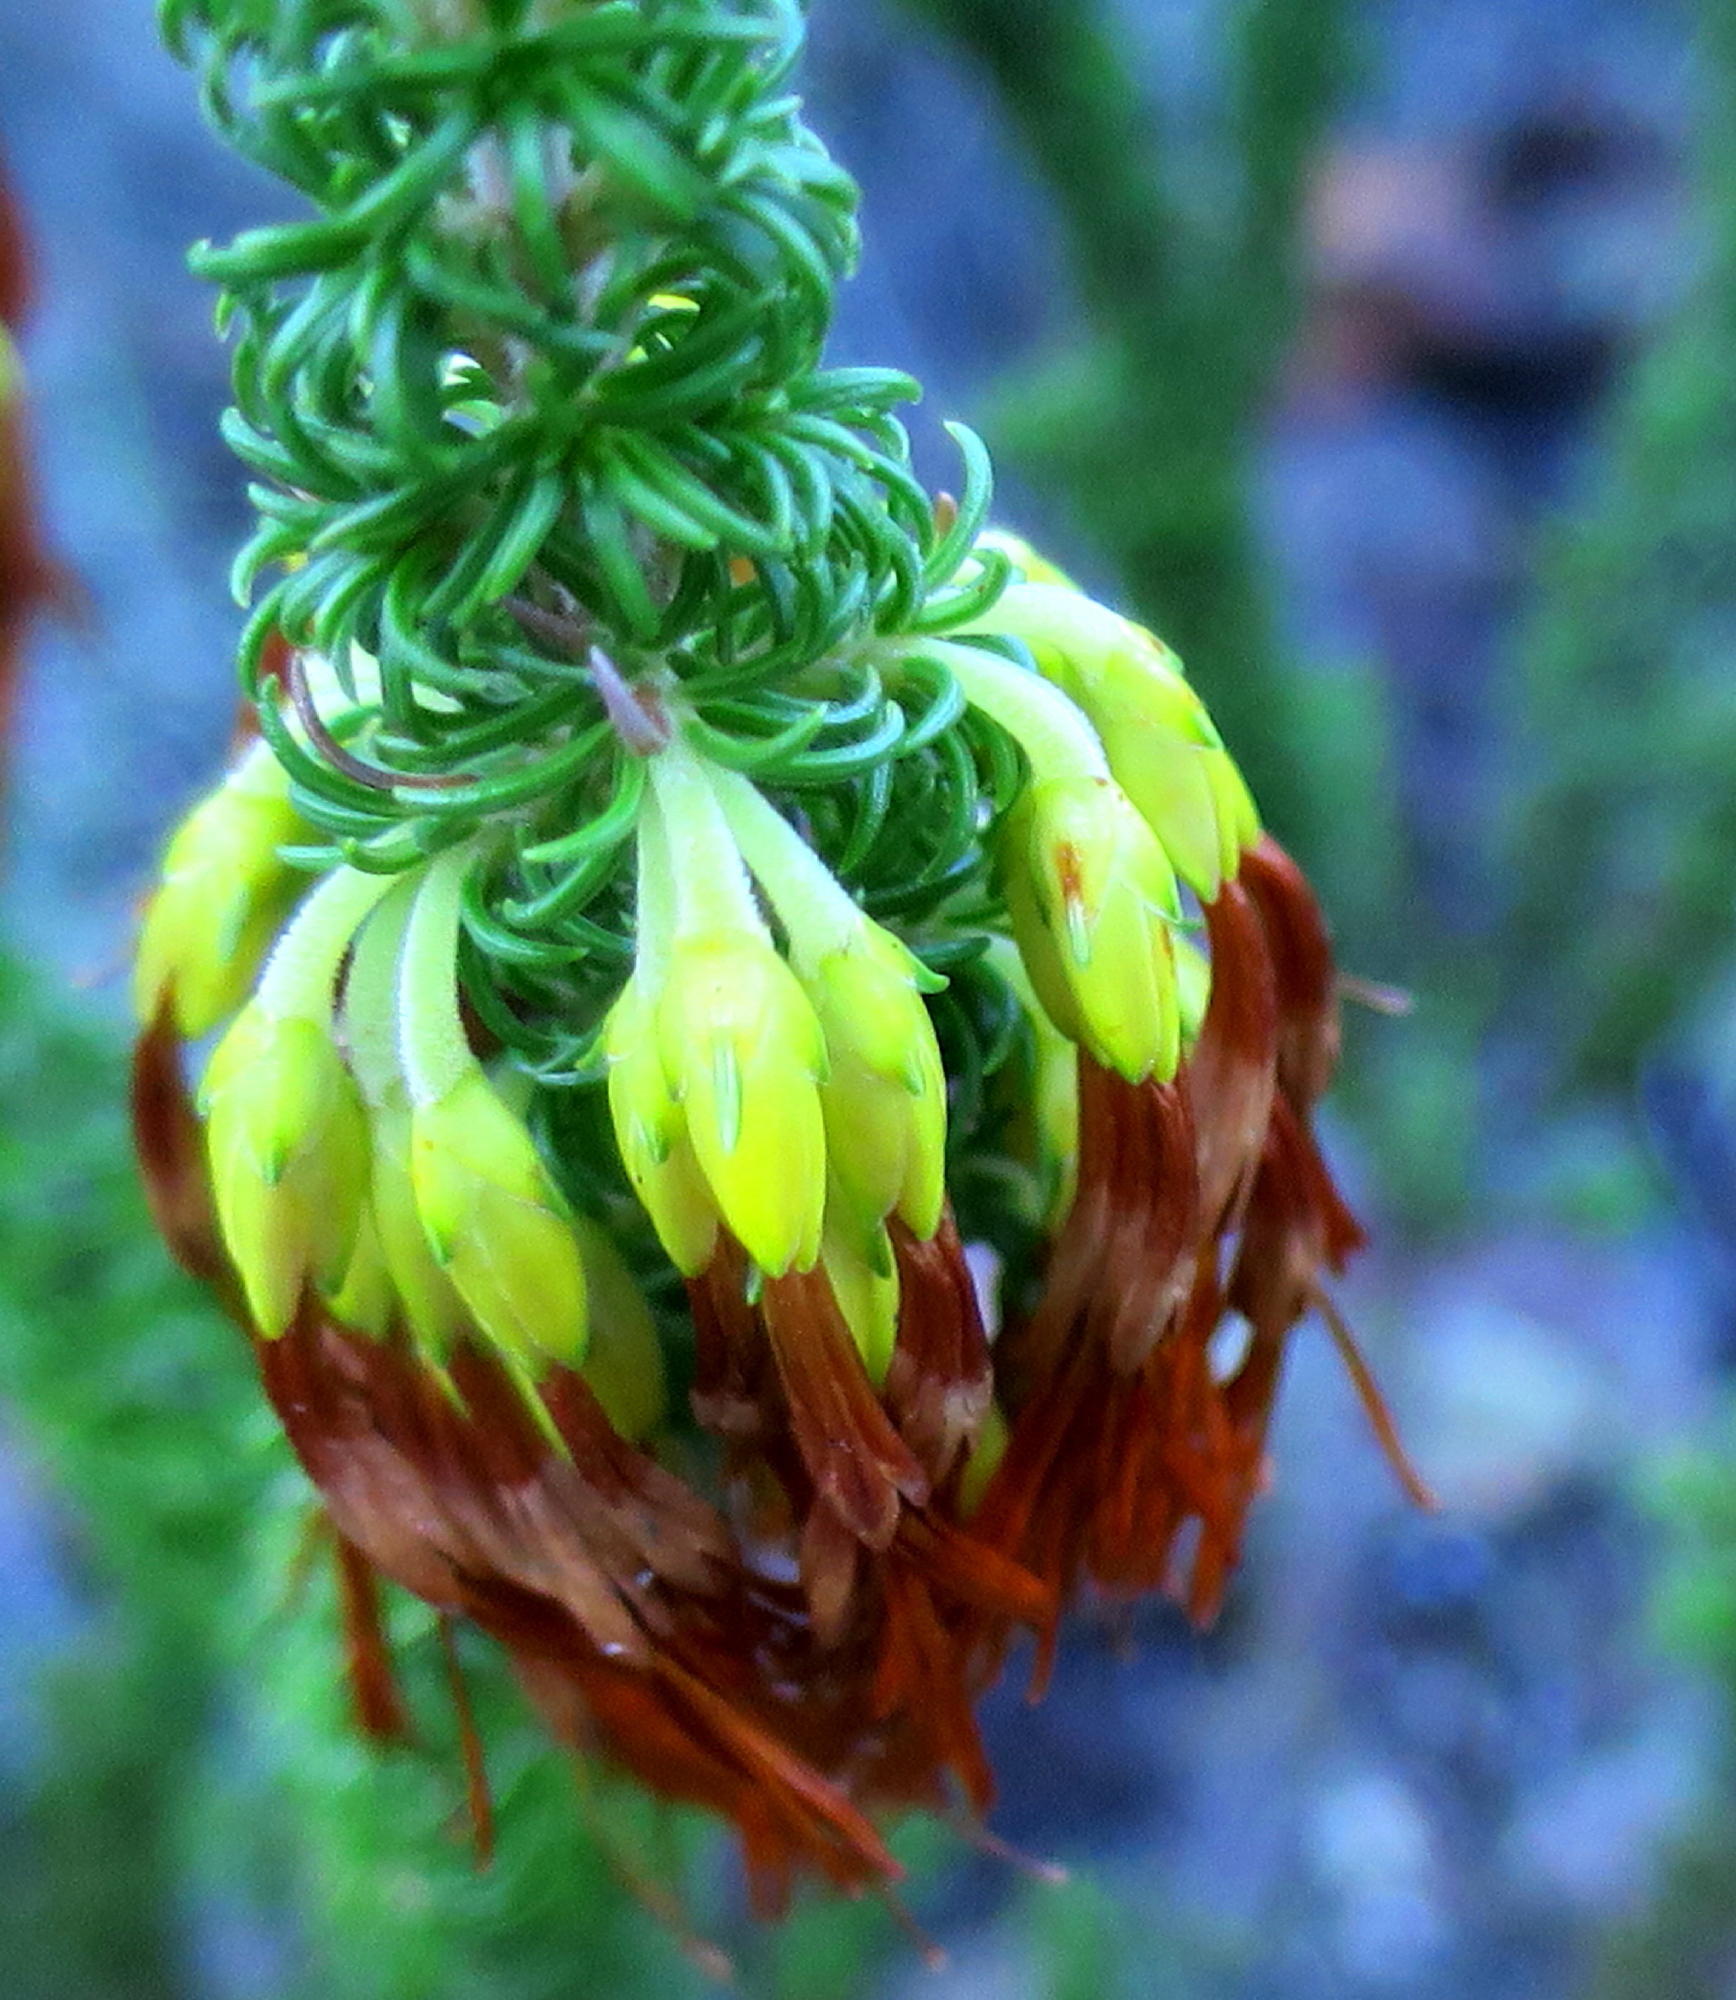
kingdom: Plantae
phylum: Tracheophyta
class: Magnoliopsida
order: Ericales
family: Ericaceae
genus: Erica
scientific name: Erica coccinea
